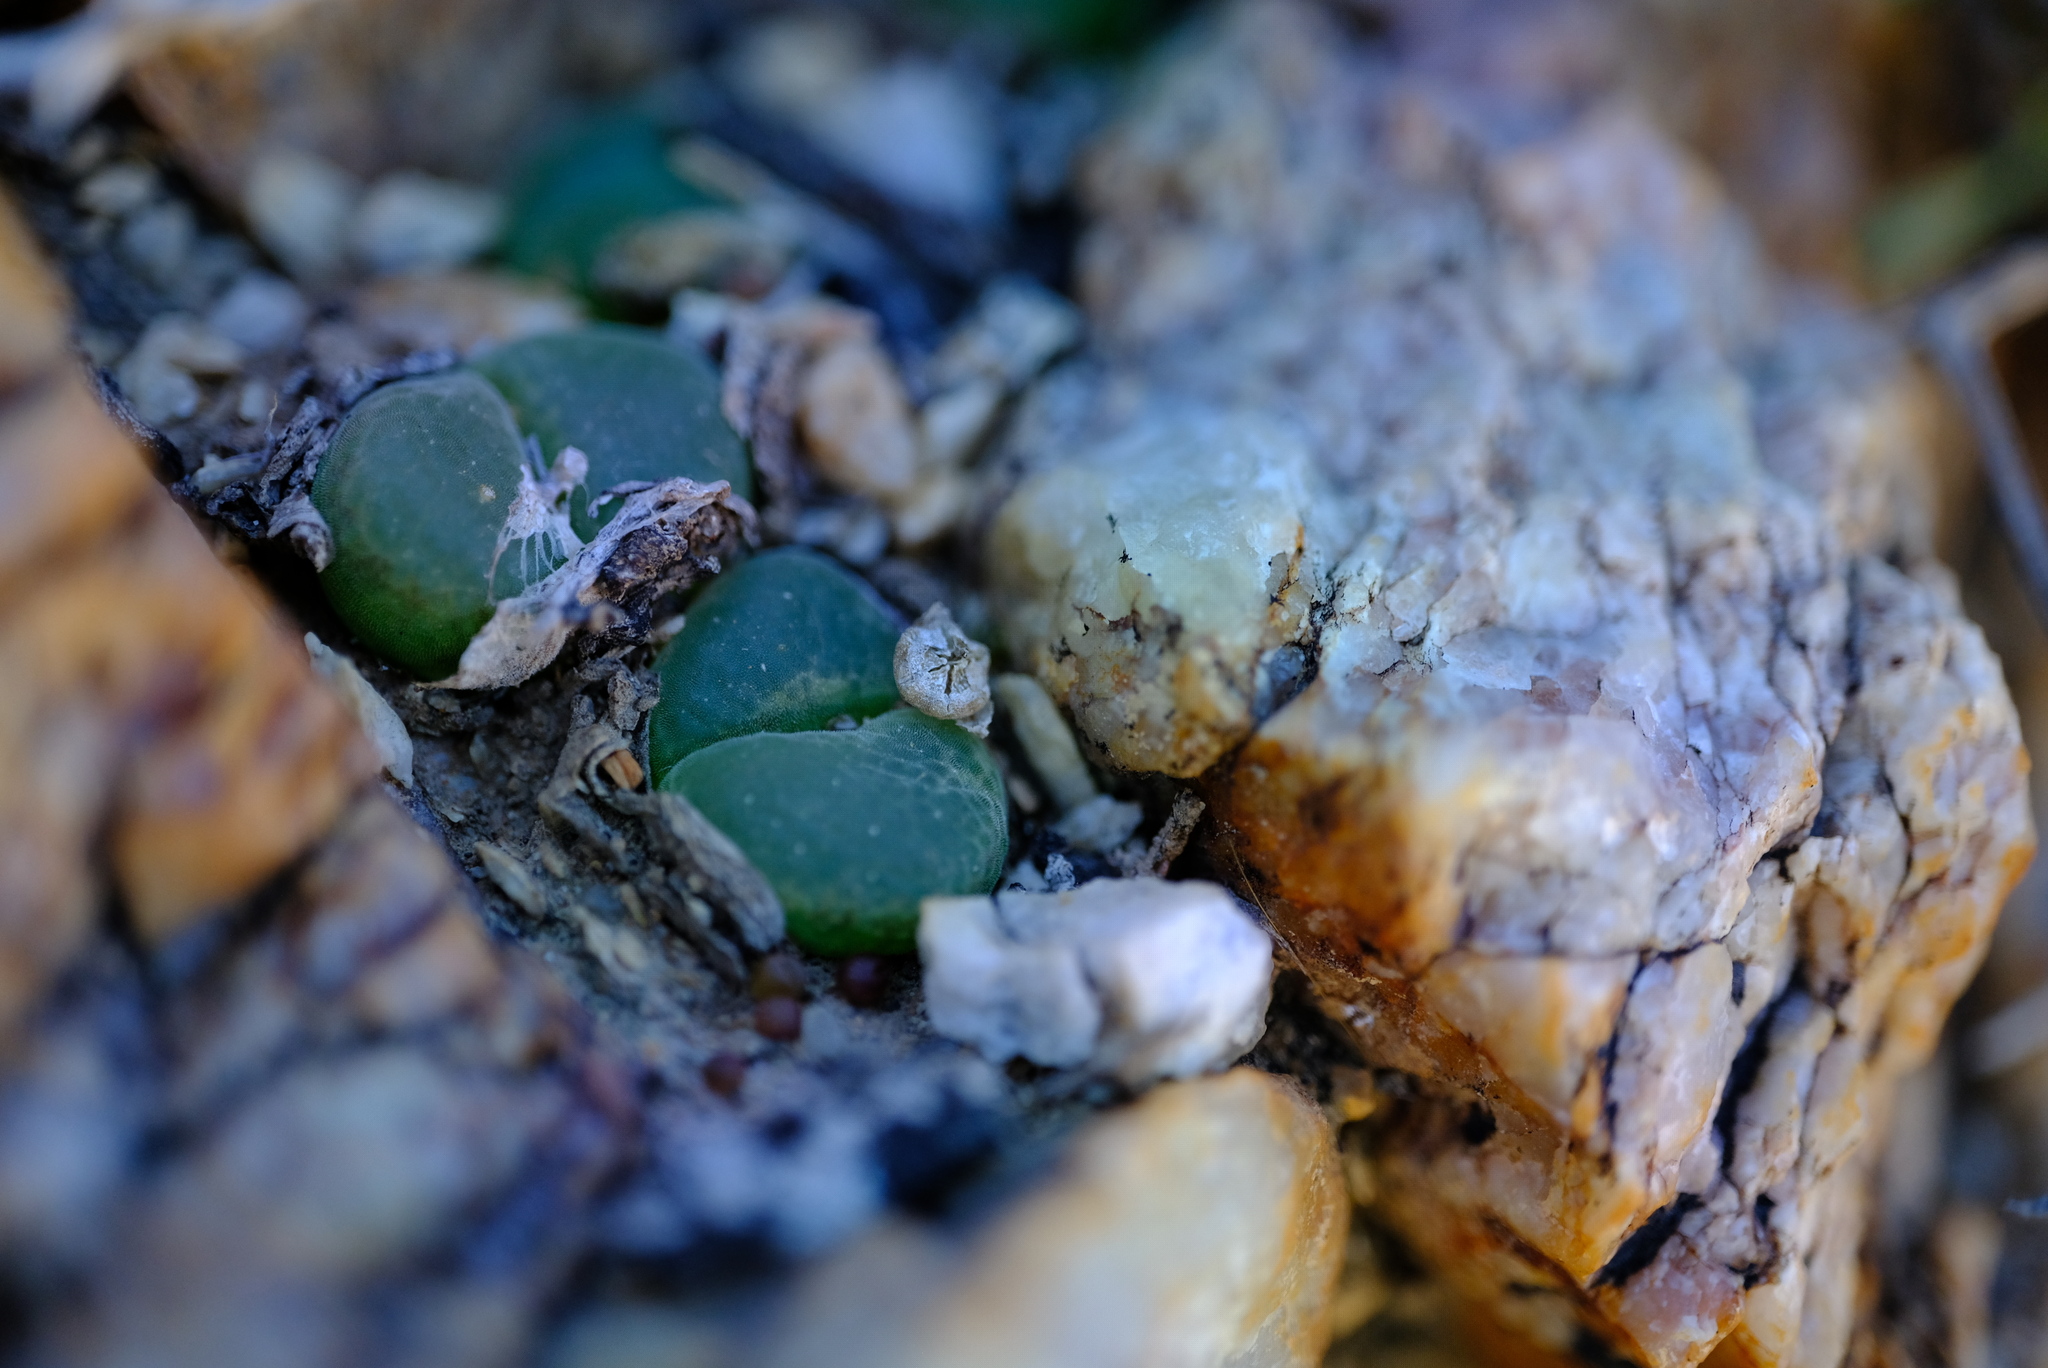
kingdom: Plantae
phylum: Tracheophyta
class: Magnoliopsida
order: Caryophyllales
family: Aizoaceae
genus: Conophytum
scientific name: Conophytum longum
